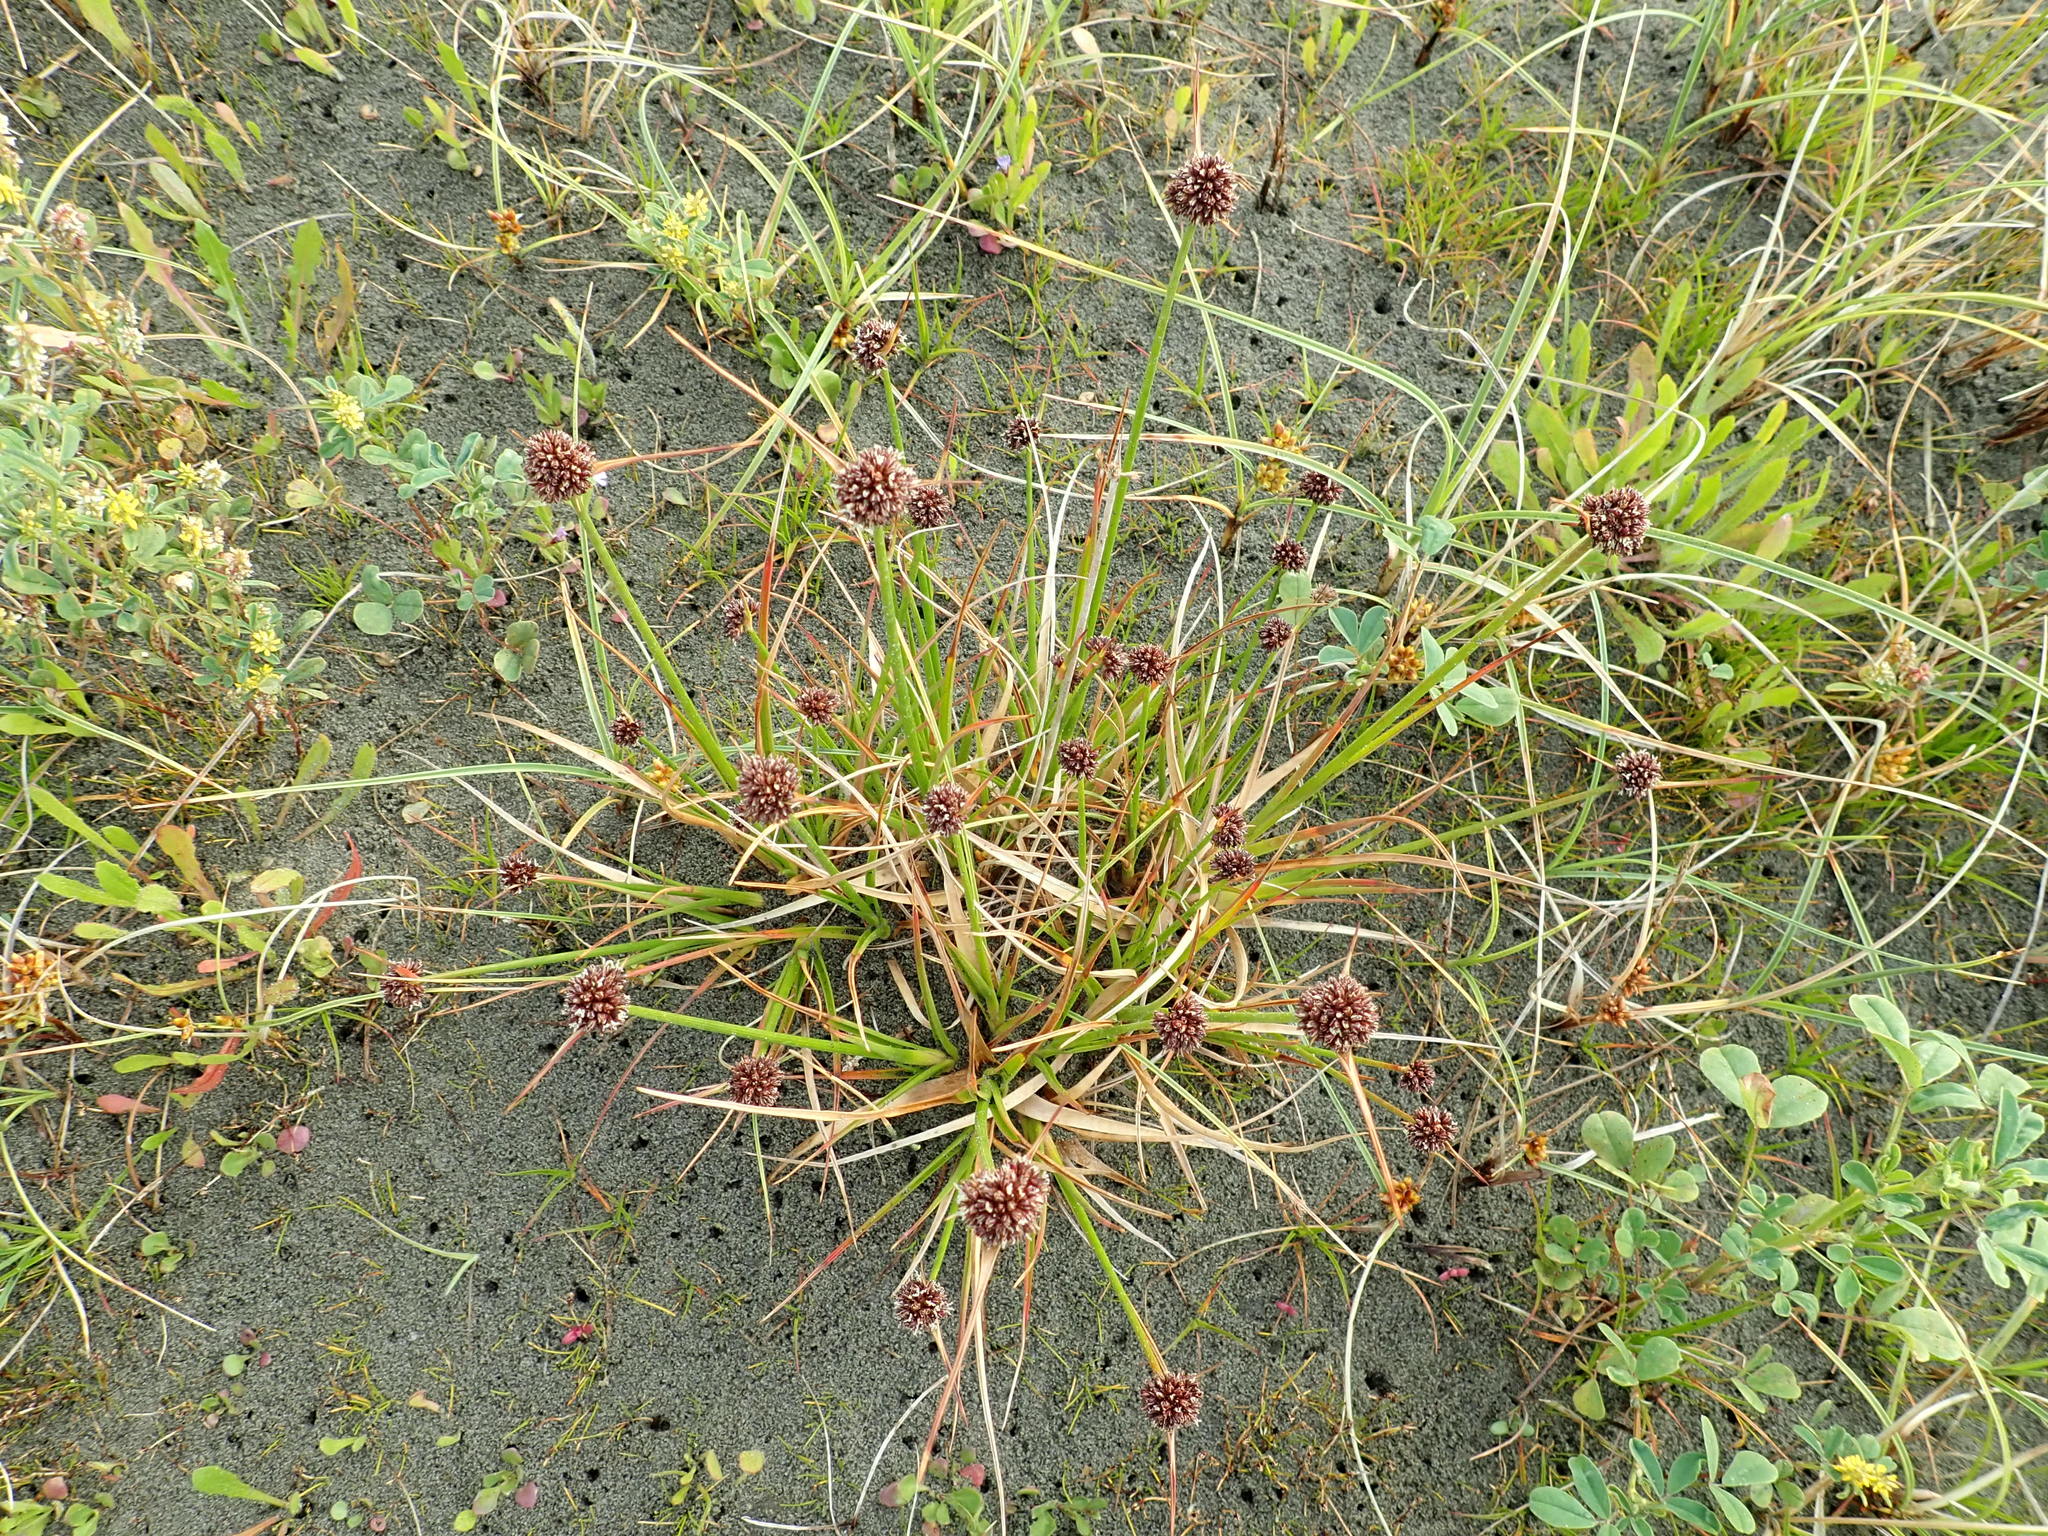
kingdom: Plantae
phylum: Tracheophyta
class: Liliopsida
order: Poales
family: Juncaceae
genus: Juncus
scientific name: Juncus caespiticius
